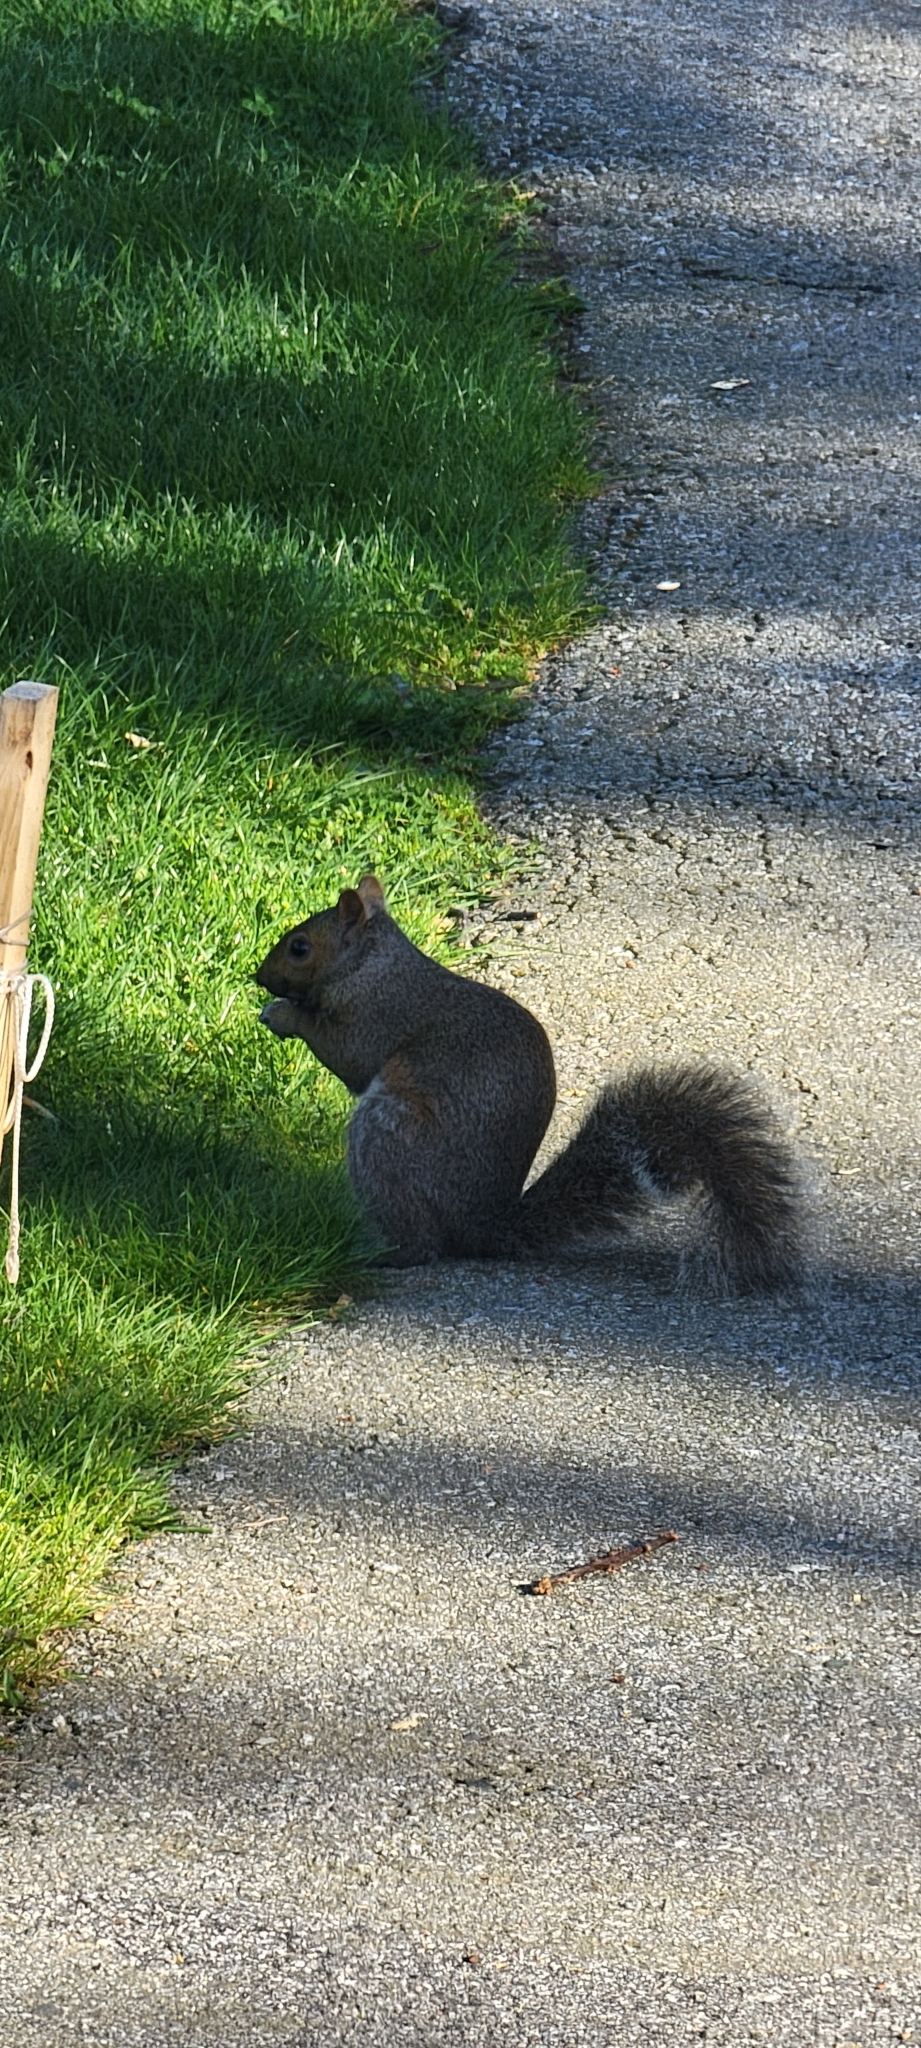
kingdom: Animalia
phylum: Chordata
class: Mammalia
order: Rodentia
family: Sciuridae
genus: Sciurus
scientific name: Sciurus carolinensis
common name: Eastern gray squirrel
